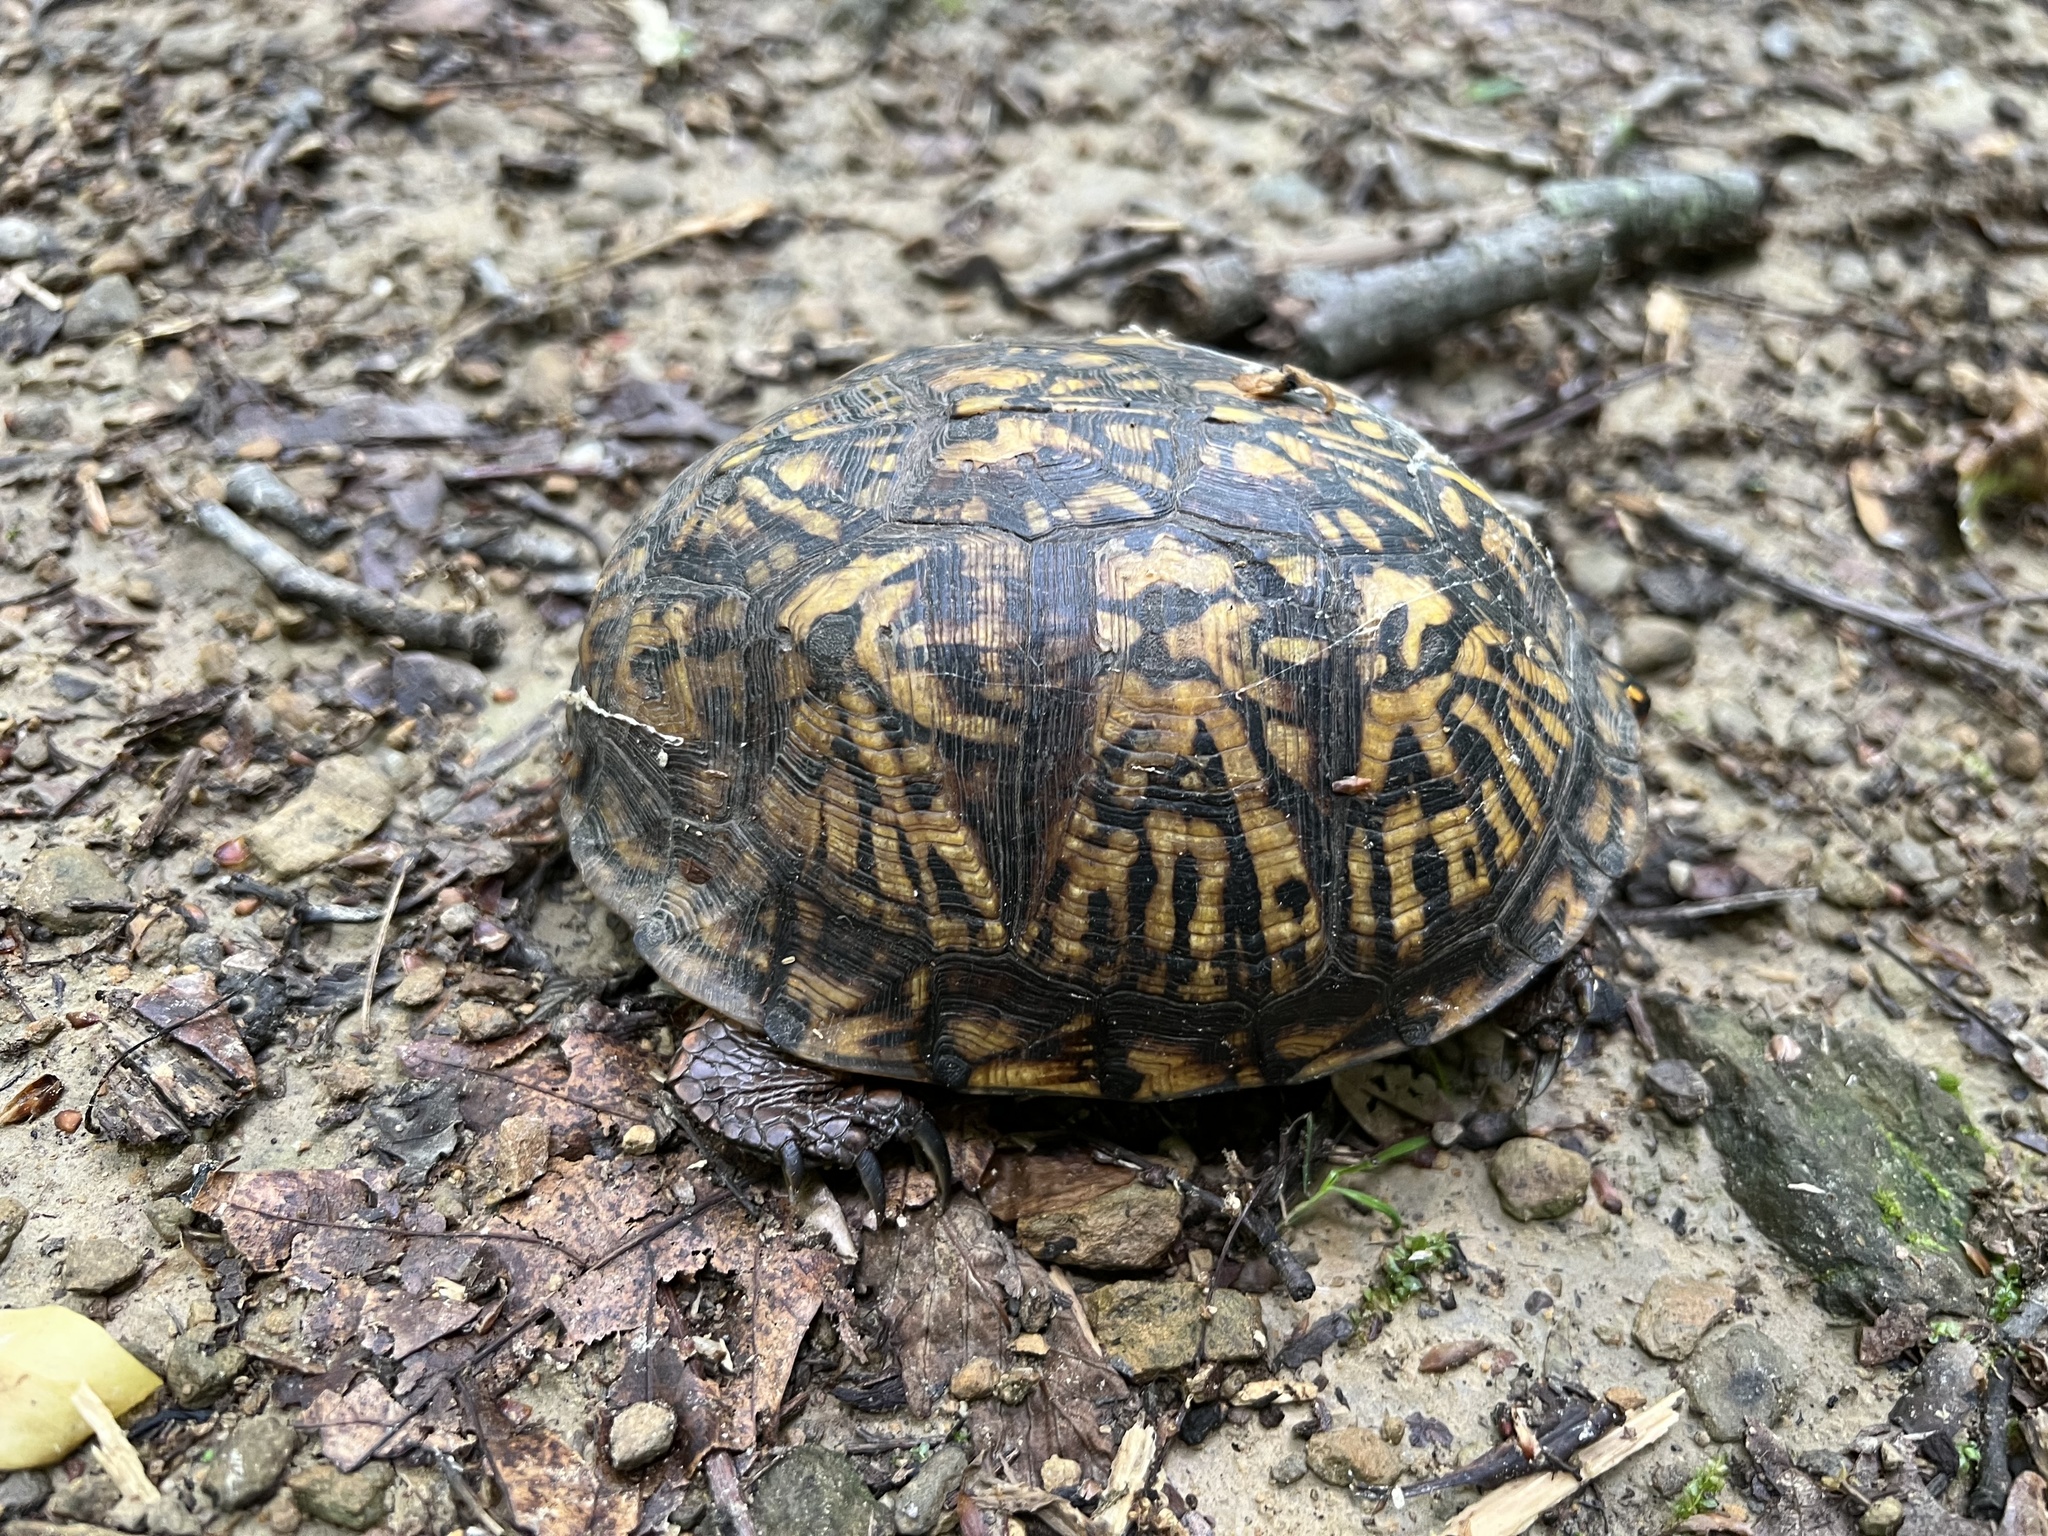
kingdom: Animalia
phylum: Chordata
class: Testudines
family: Emydidae
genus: Terrapene
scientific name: Terrapene carolina
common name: Common box turtle
